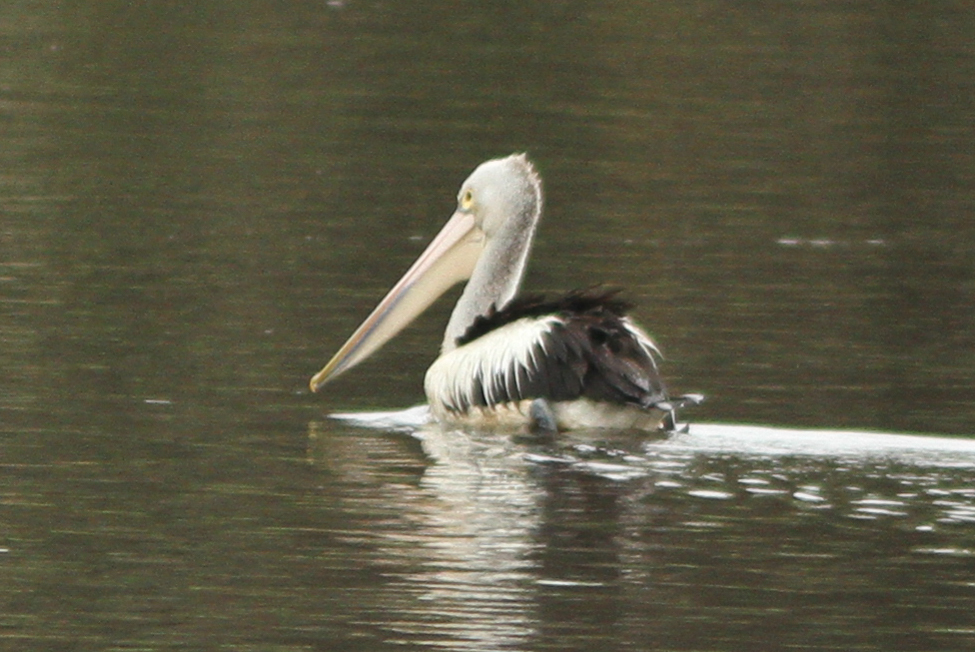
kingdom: Animalia
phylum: Chordata
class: Aves
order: Pelecaniformes
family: Pelecanidae
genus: Pelecanus
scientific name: Pelecanus conspicillatus
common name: Australian pelican
